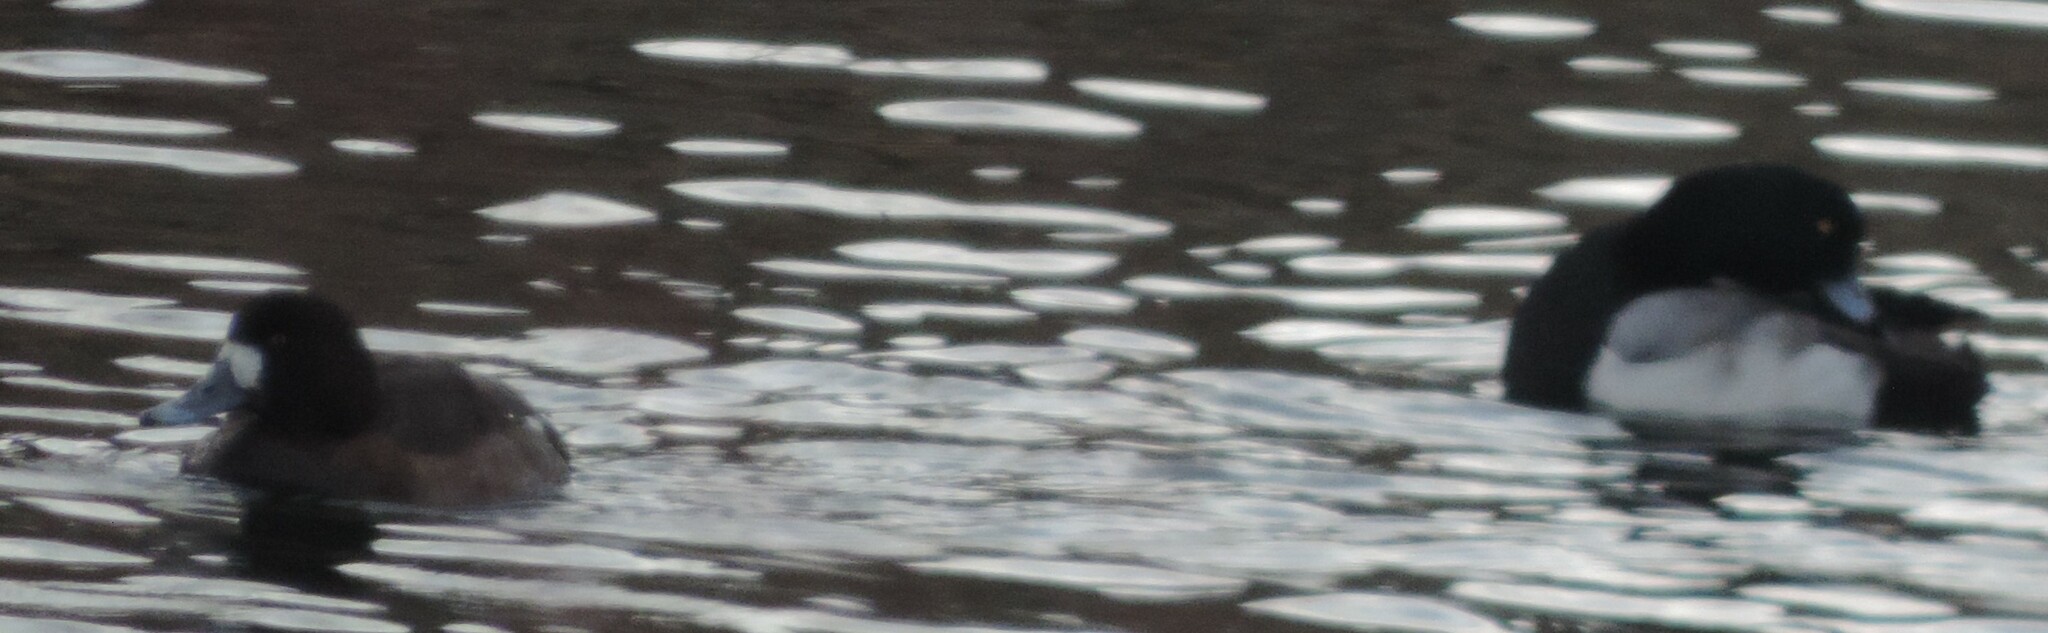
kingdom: Animalia
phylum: Chordata
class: Aves
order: Anseriformes
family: Anatidae
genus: Aythya
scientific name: Aythya marila
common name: Greater scaup
